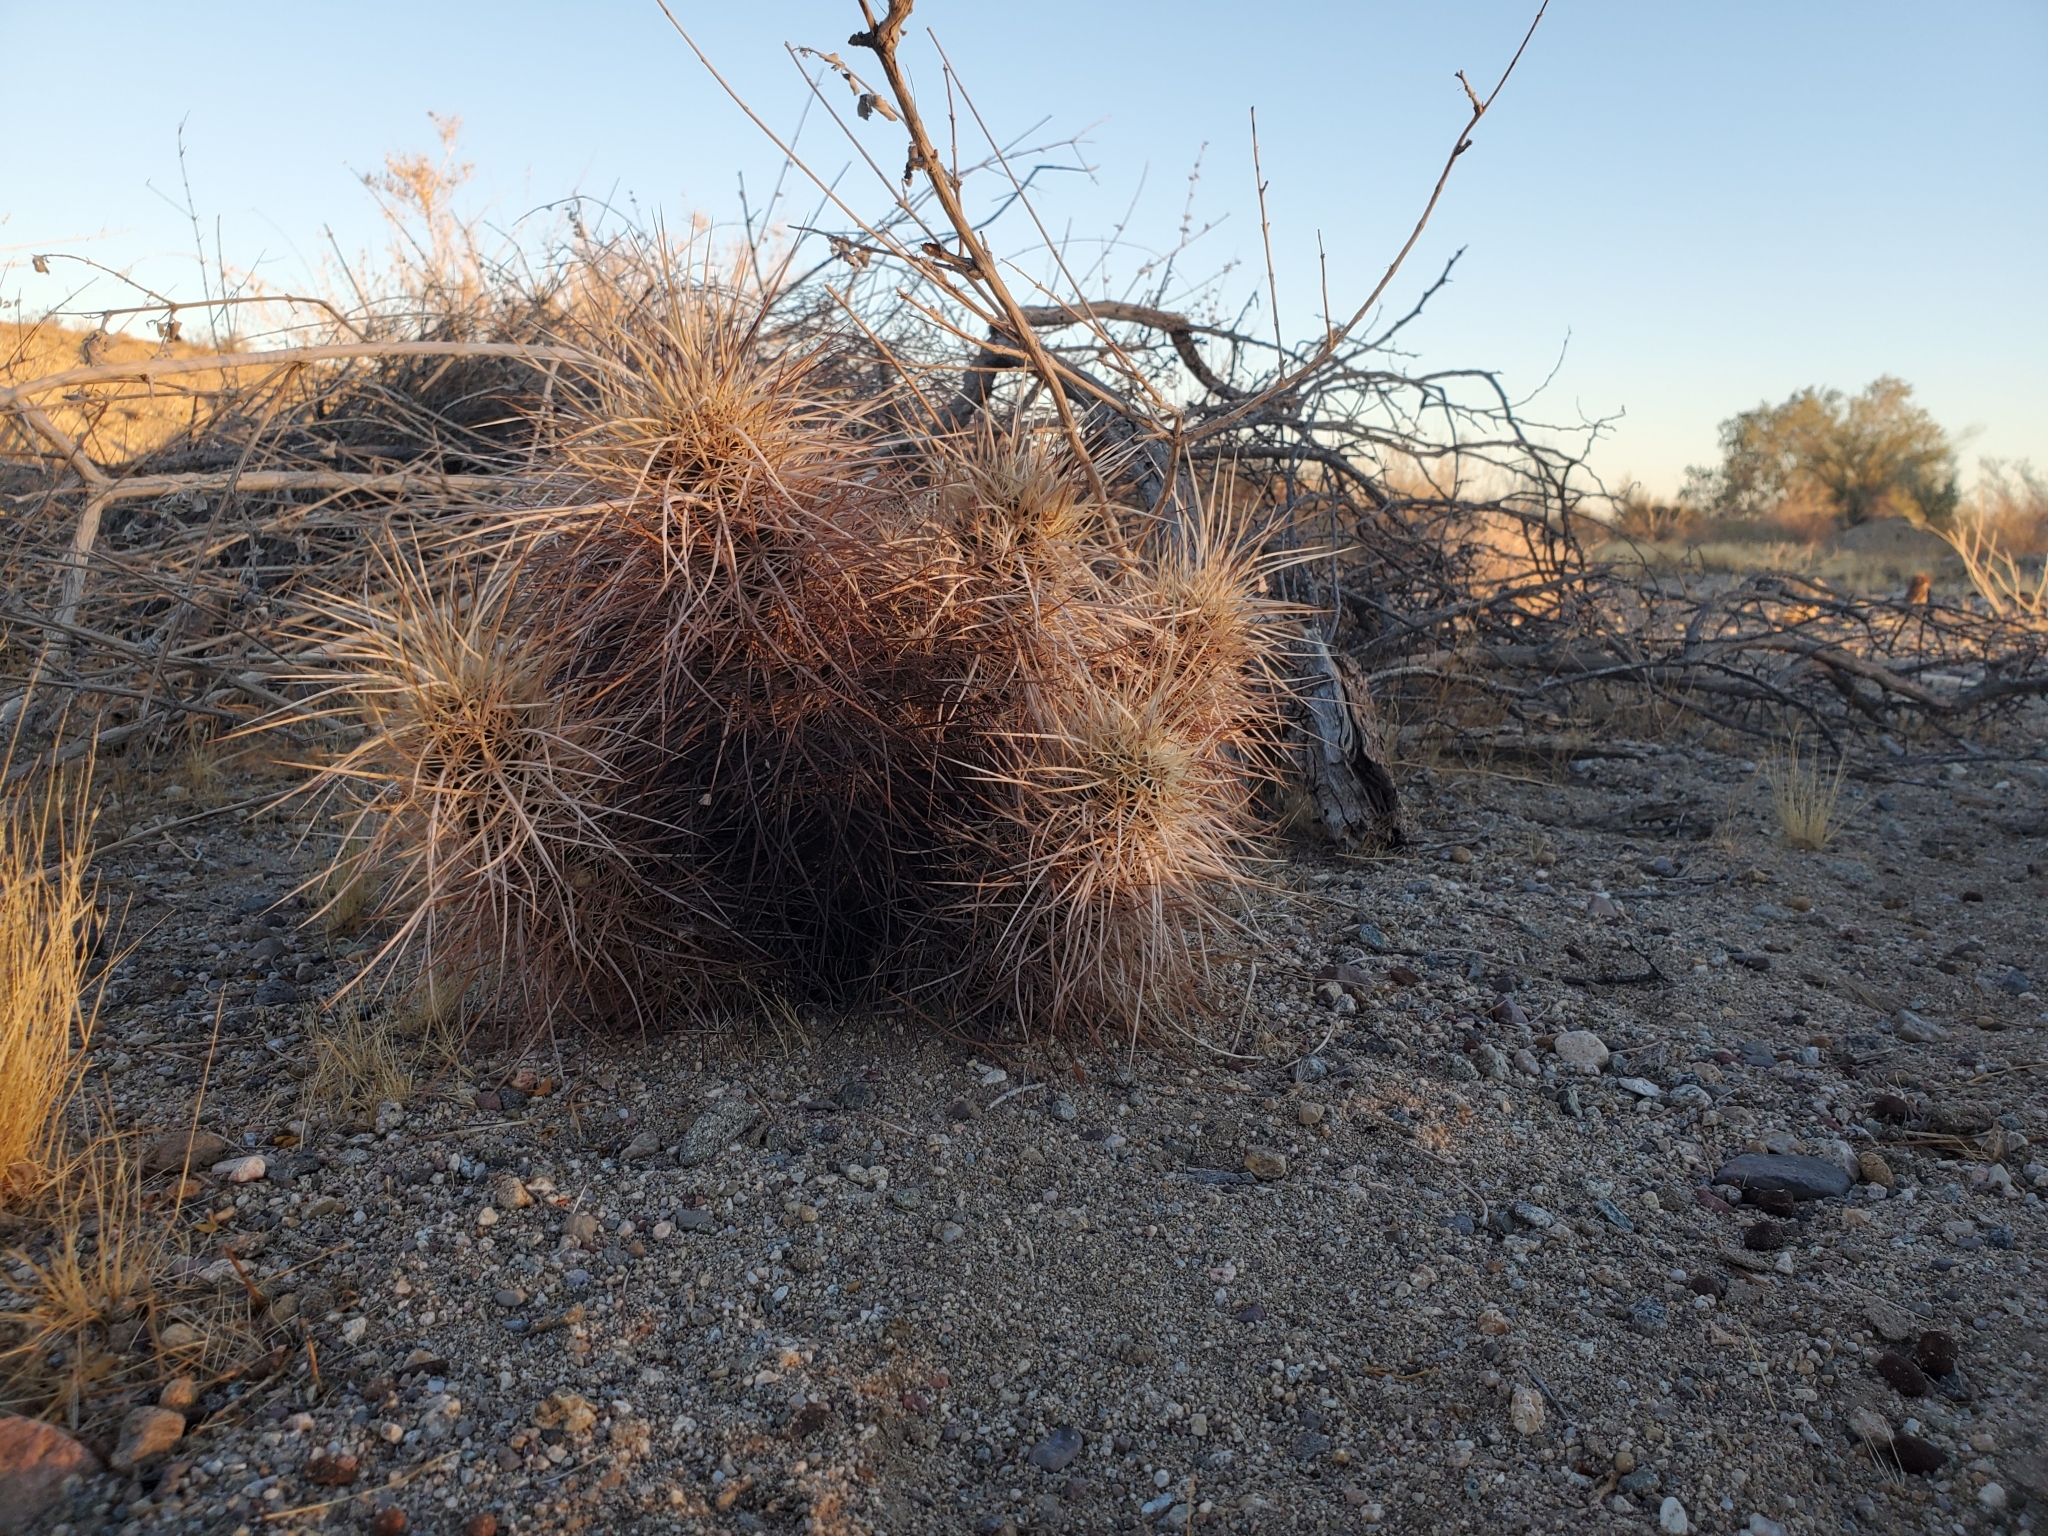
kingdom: Plantae
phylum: Tracheophyta
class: Magnoliopsida
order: Caryophyllales
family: Cactaceae
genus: Echinocereus
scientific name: Echinocereus engelmannii
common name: Engelmann's hedgehog cactus
